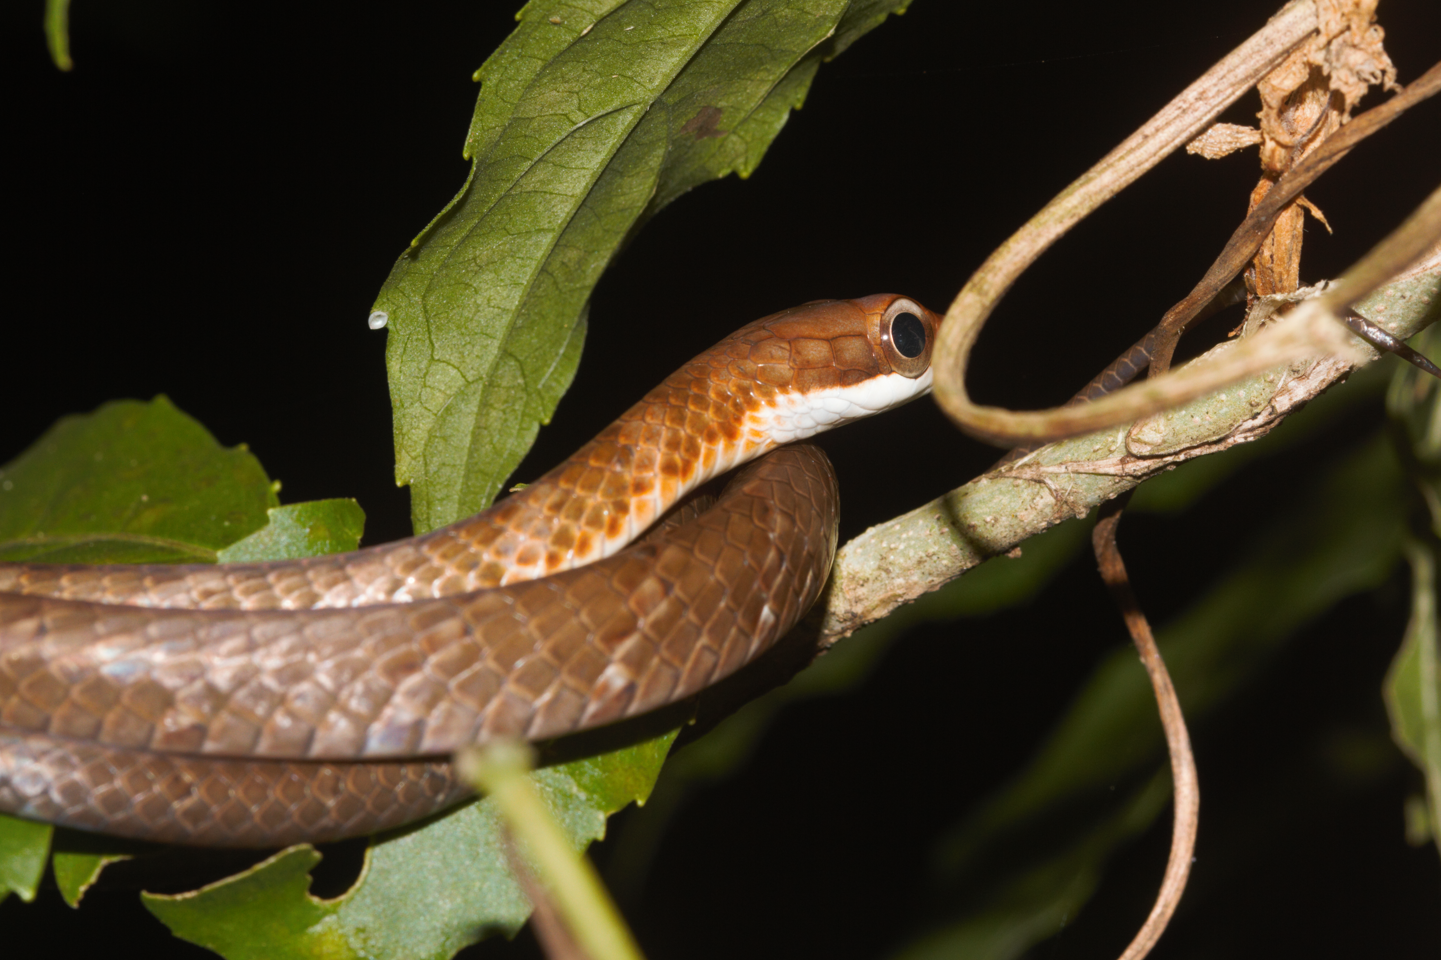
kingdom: Animalia
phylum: Chordata
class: Squamata
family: Colubridae
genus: Chironius
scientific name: Chironius fuscus
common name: Brown sipo
